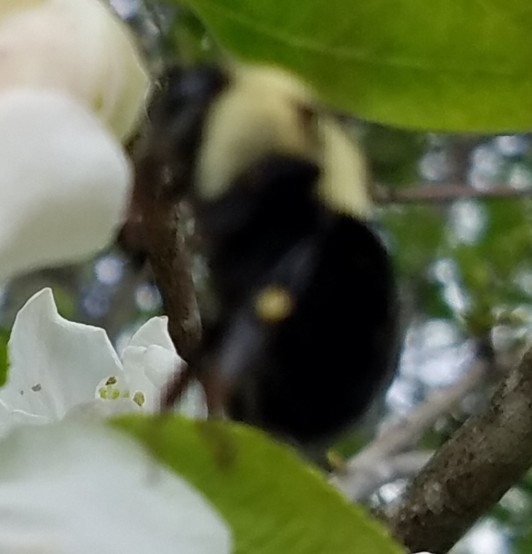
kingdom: Animalia
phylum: Arthropoda
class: Insecta
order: Hymenoptera
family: Apidae
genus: Bombus
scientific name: Bombus
